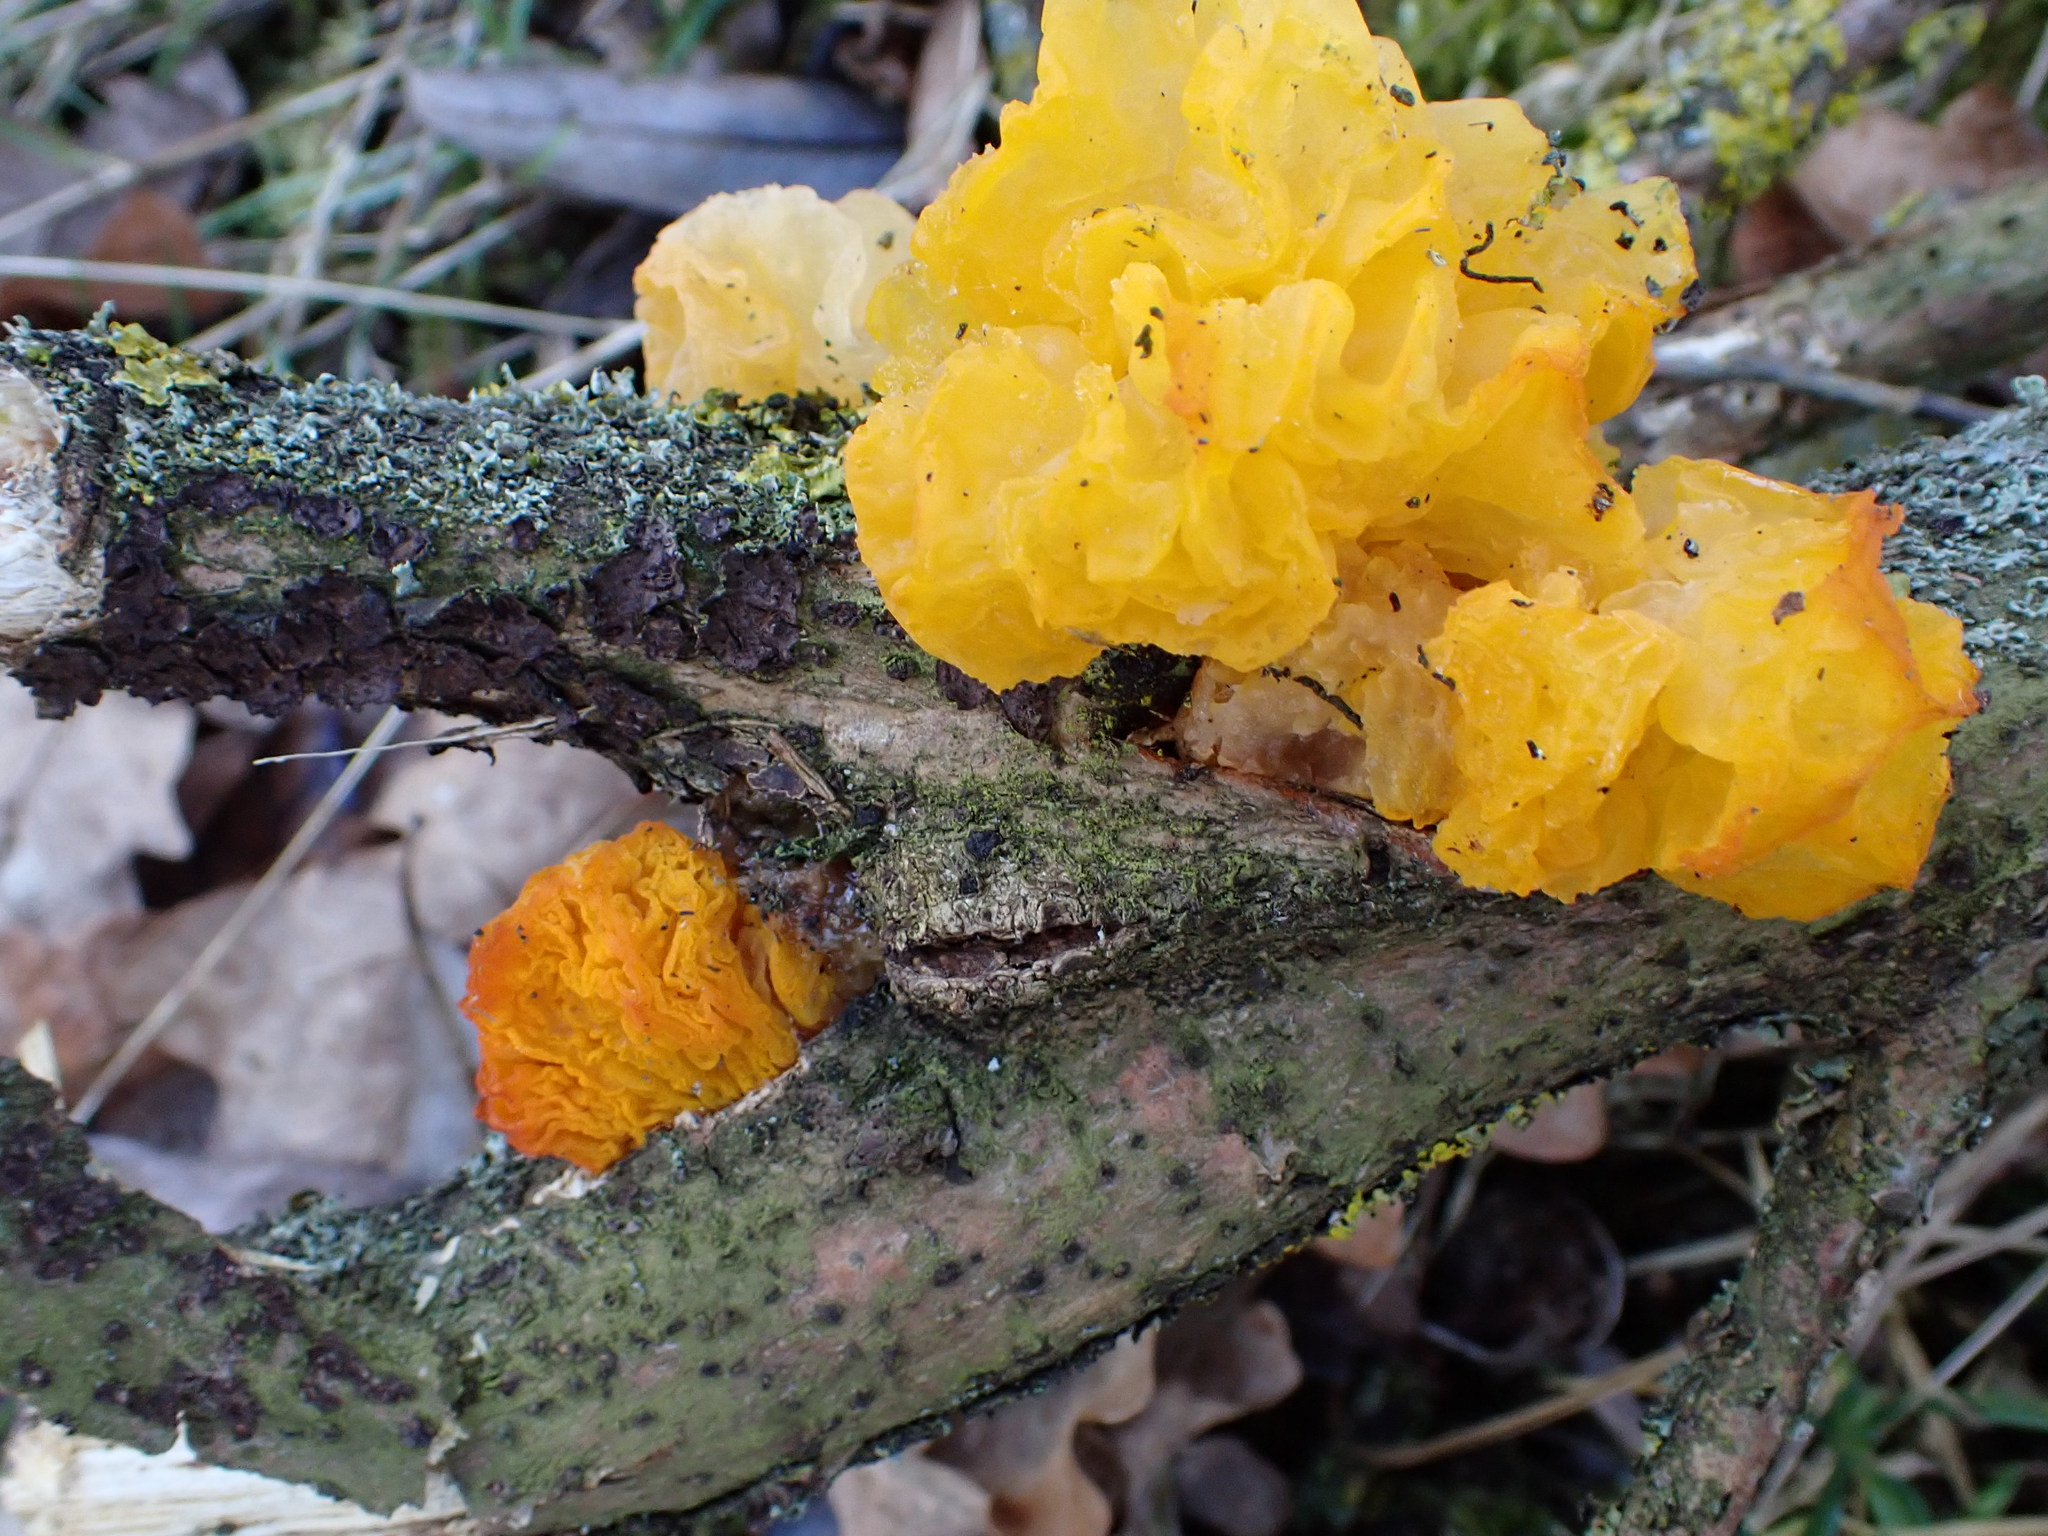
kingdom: Fungi
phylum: Basidiomycota
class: Tremellomycetes
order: Tremellales
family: Tremellaceae
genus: Tremella
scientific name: Tremella mesenterica
